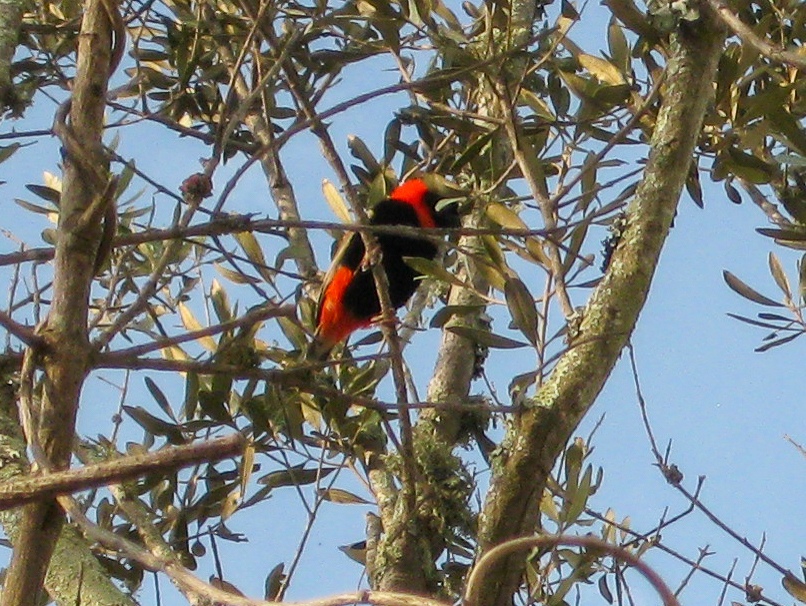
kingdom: Animalia
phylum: Chordata
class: Aves
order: Passeriformes
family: Ploceidae
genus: Euplectes
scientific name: Euplectes orix
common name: Southern red bishop
